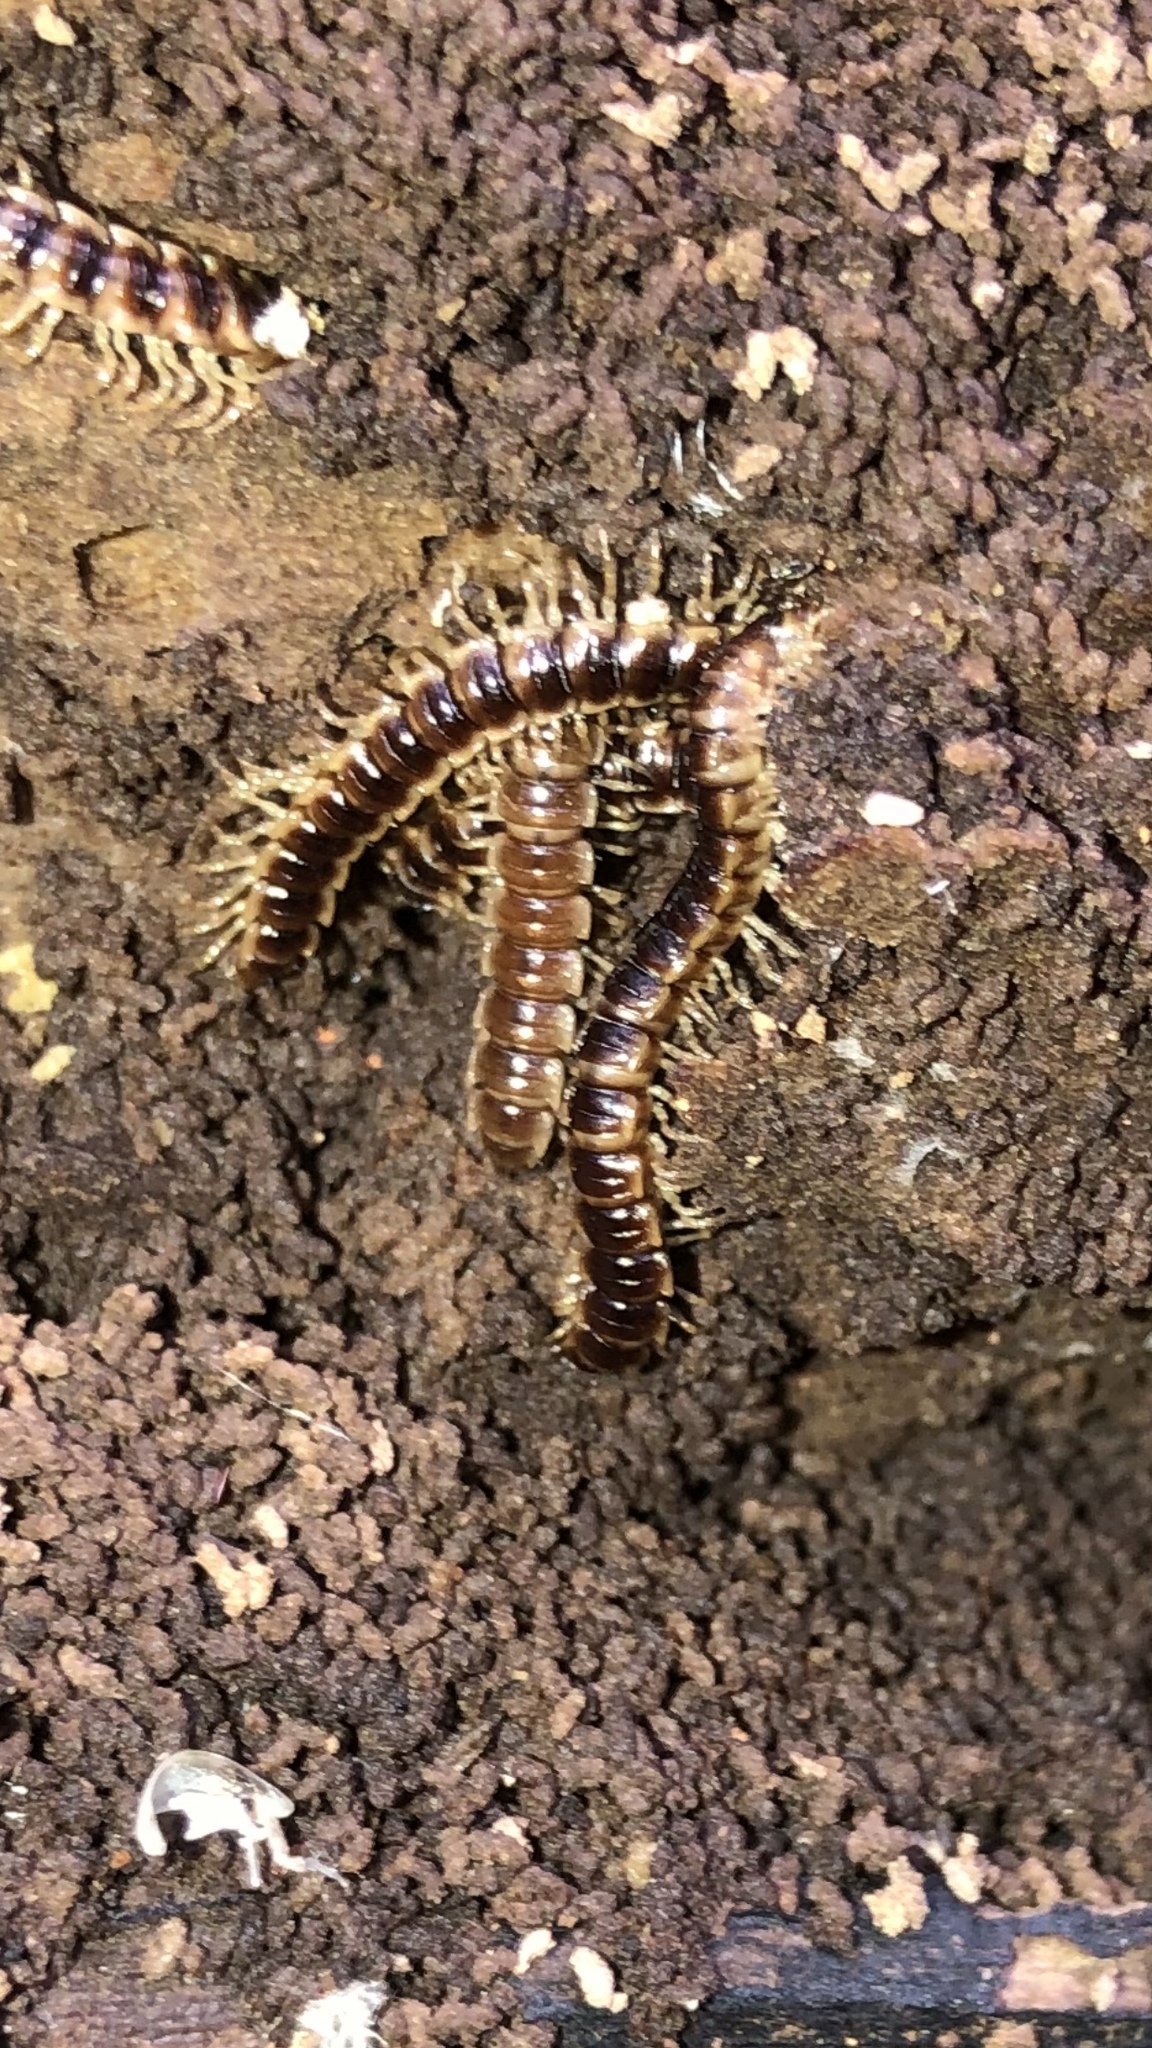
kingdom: Animalia
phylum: Arthropoda
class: Diplopoda
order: Polydesmida
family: Paradoxosomatidae
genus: Oxidus
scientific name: Oxidus gracilis
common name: Greenhouse millipede
